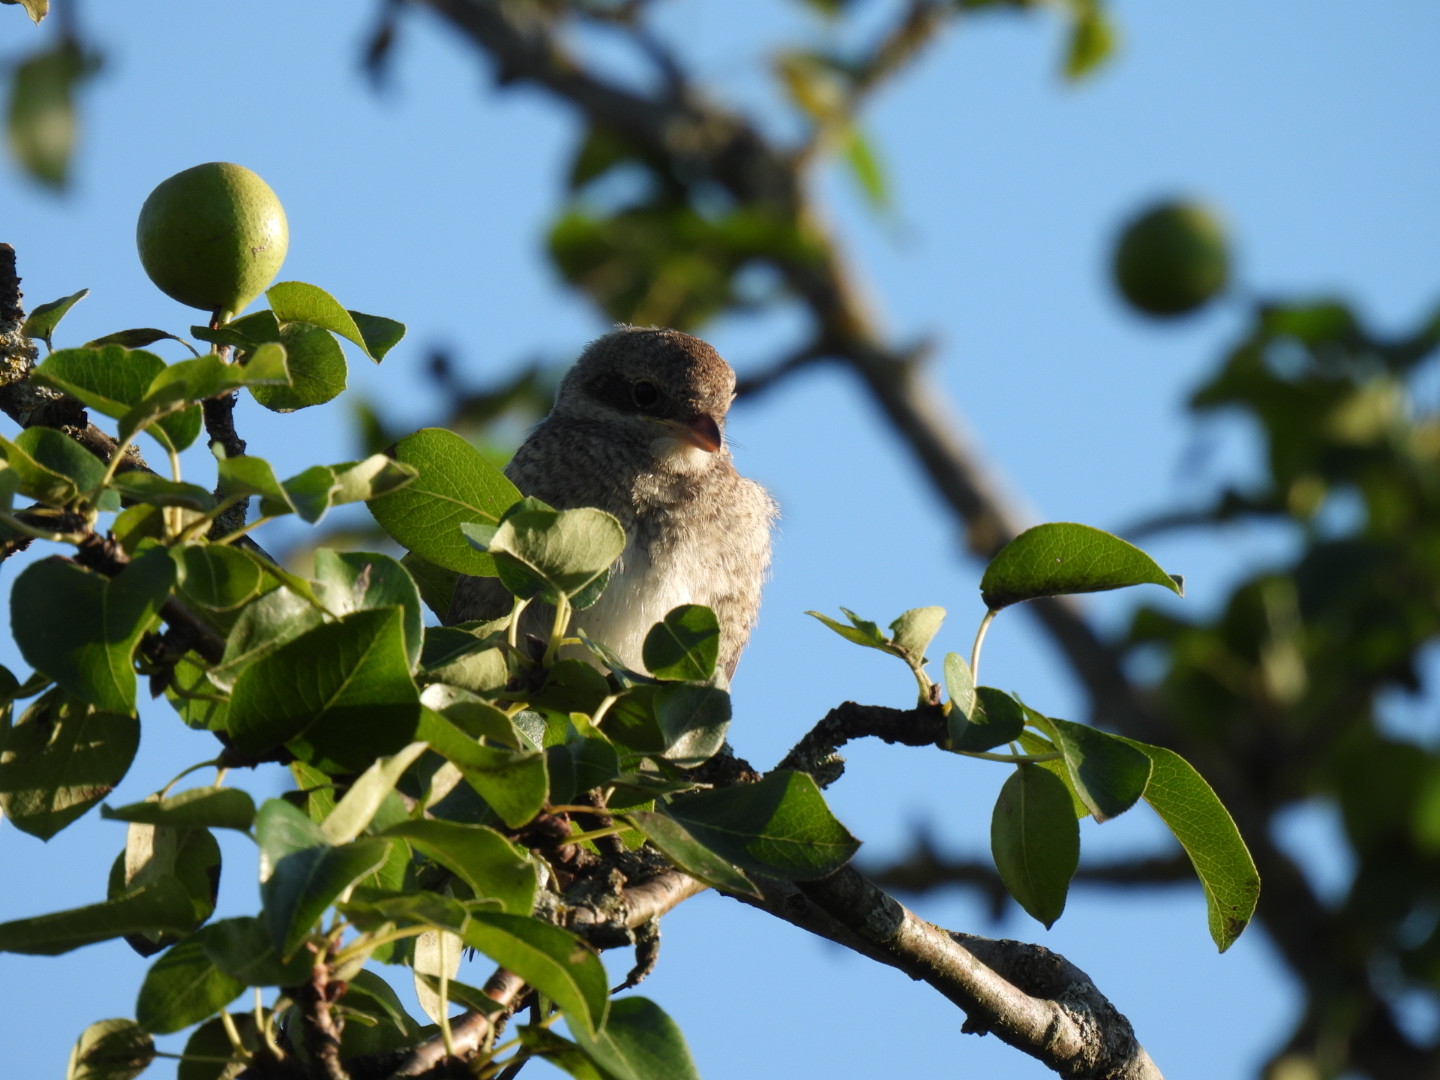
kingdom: Animalia
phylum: Chordata
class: Aves
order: Passeriformes
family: Laniidae
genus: Lanius
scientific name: Lanius collurio
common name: Red-backed shrike
